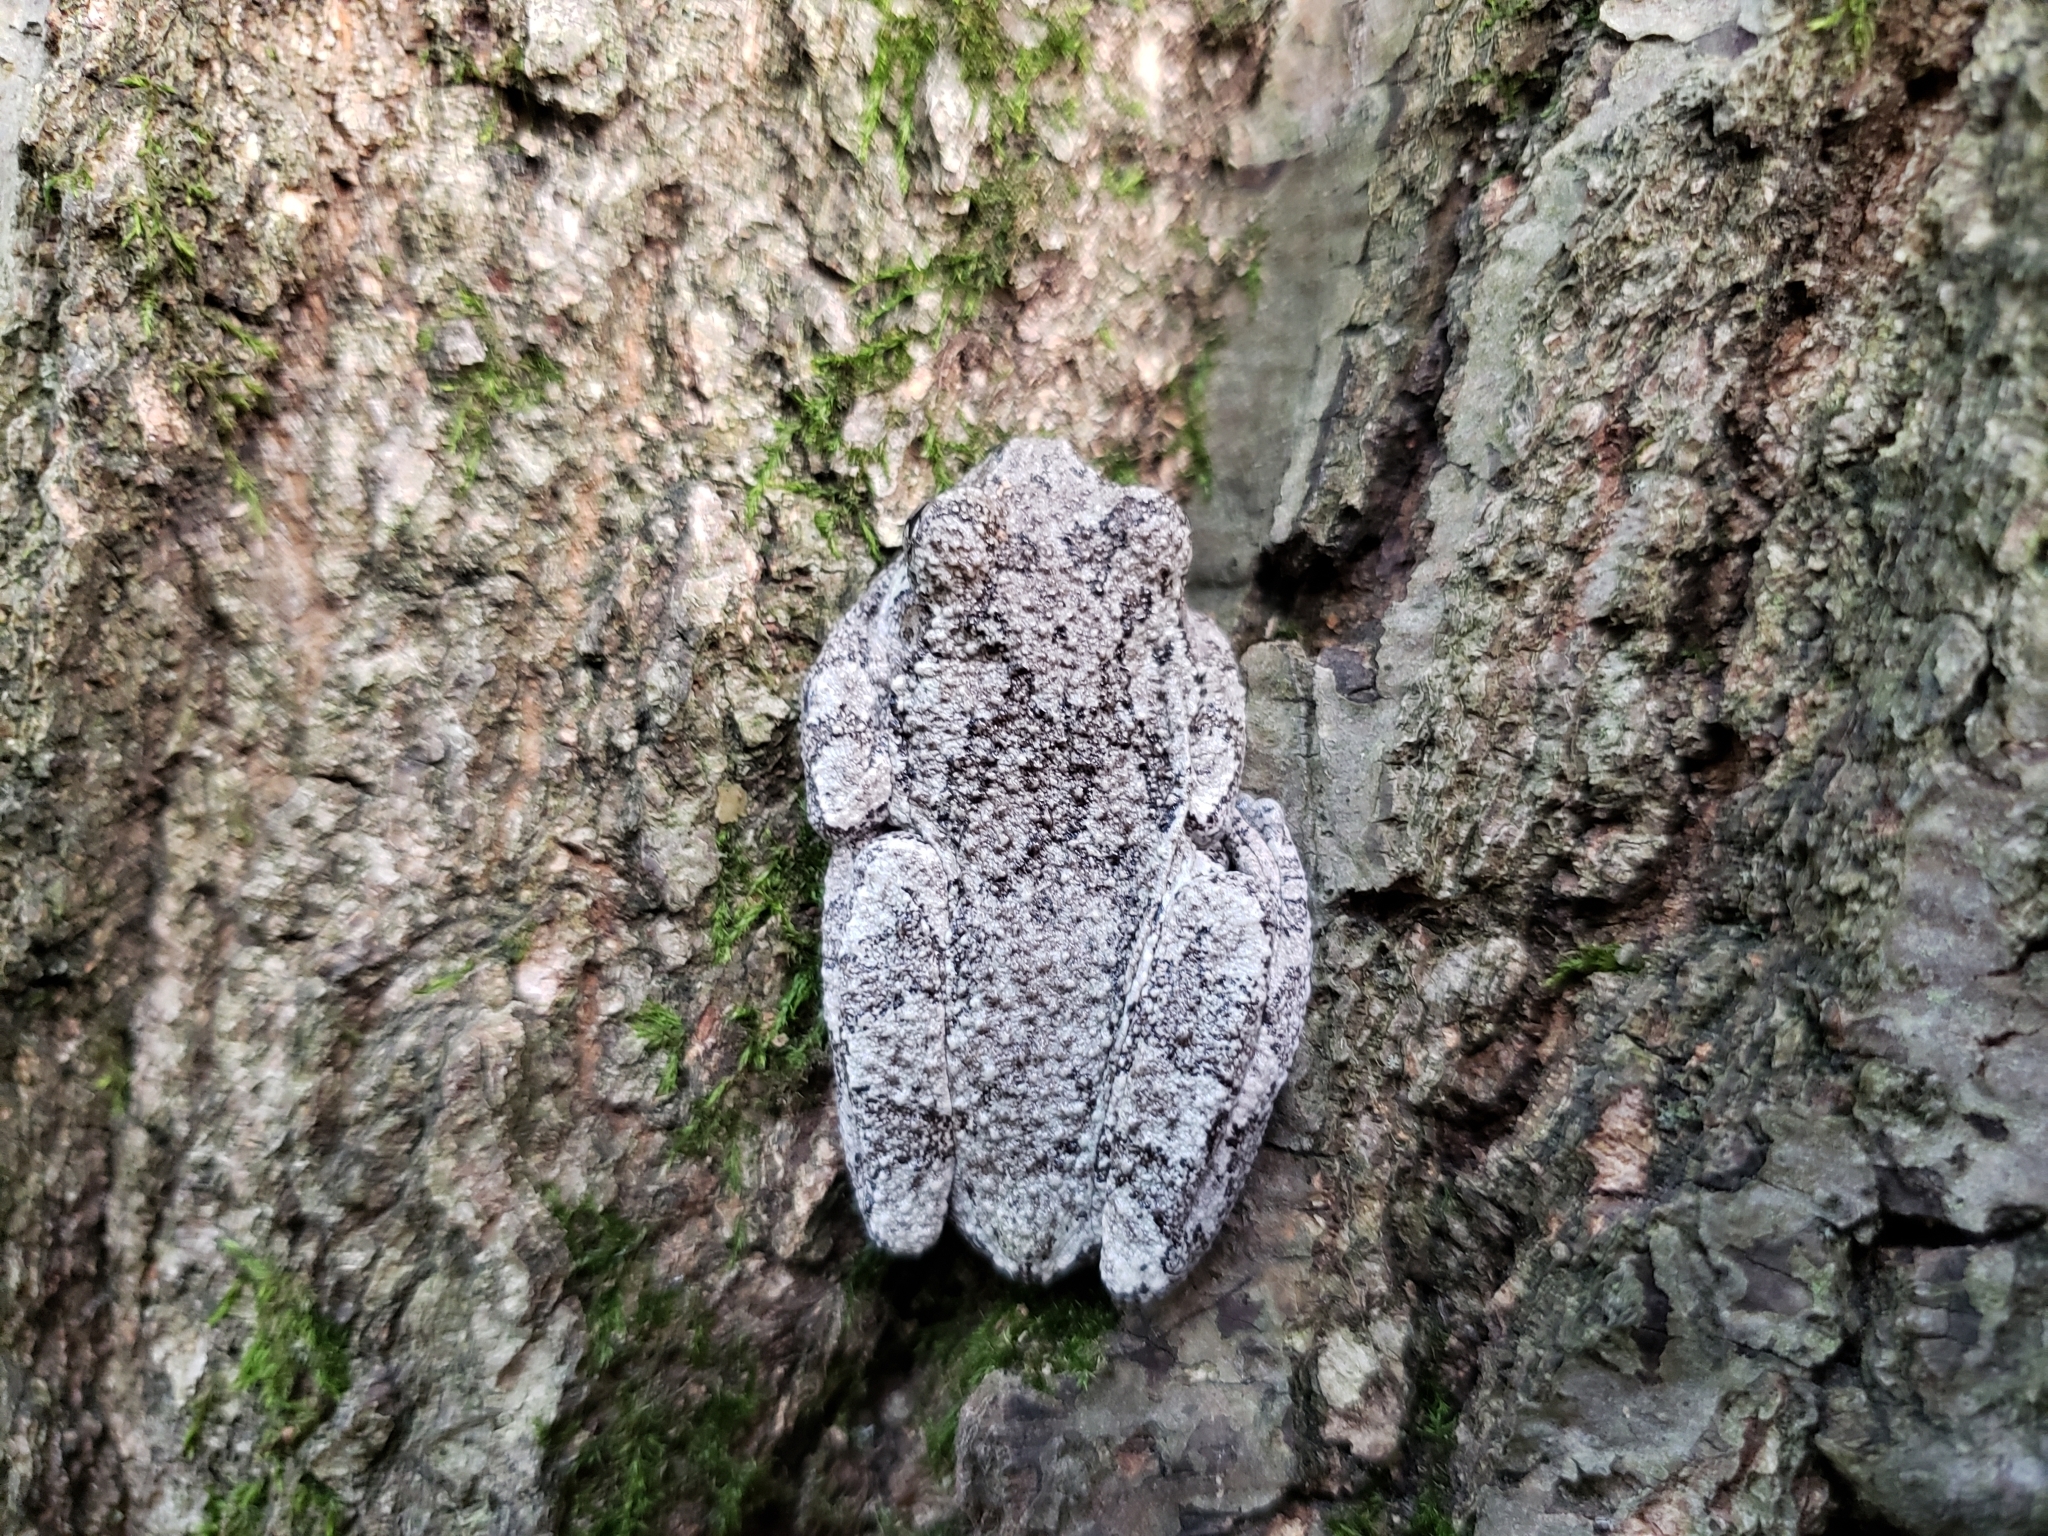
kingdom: Animalia
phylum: Chordata
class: Amphibia
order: Anura
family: Hylidae
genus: Dryophytes
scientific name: Dryophytes versicolor
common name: Gray treefrog
